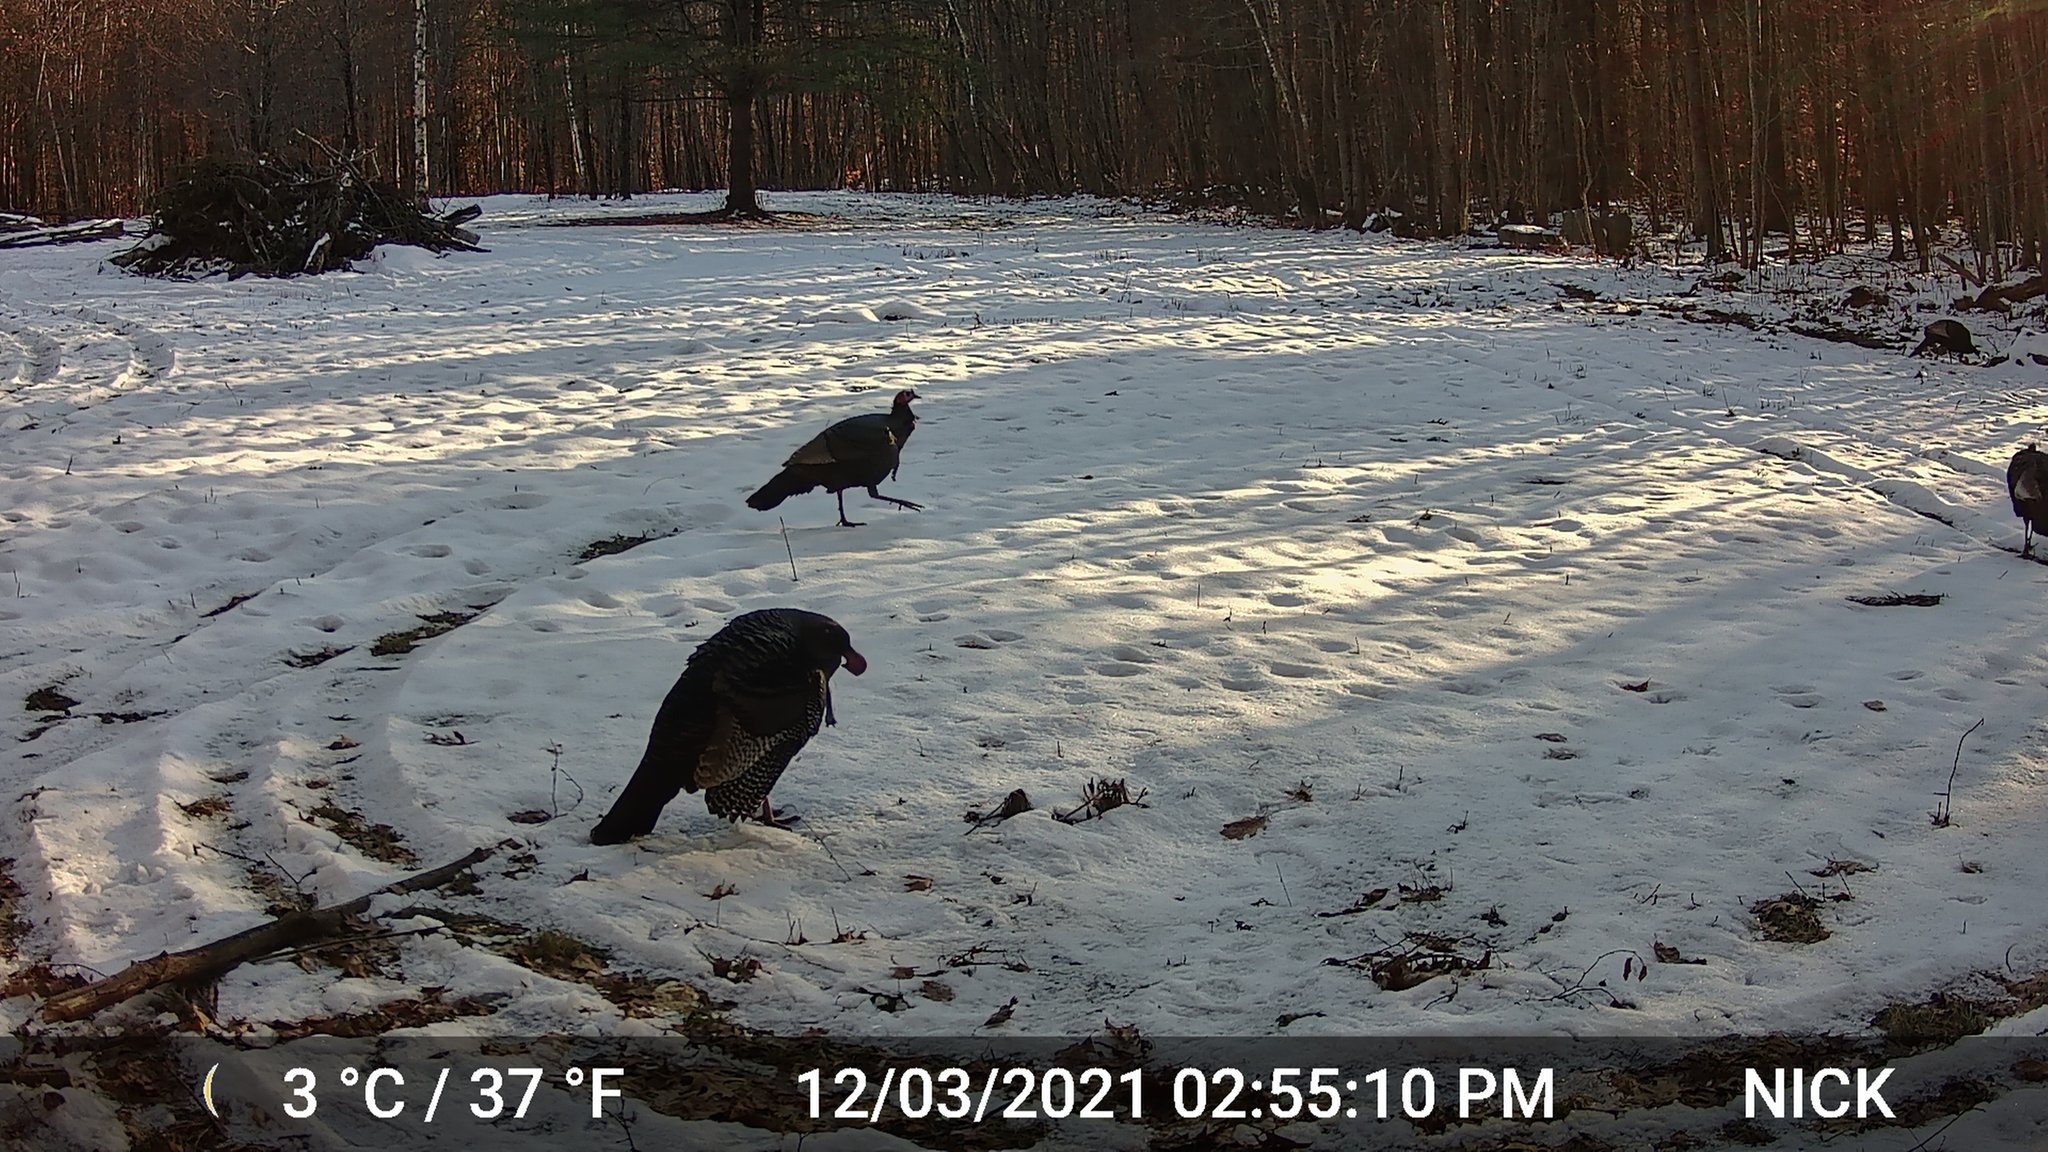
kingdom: Animalia
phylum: Chordata
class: Aves
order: Galliformes
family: Phasianidae
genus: Meleagris
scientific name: Meleagris gallopavo
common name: Wild turkey
